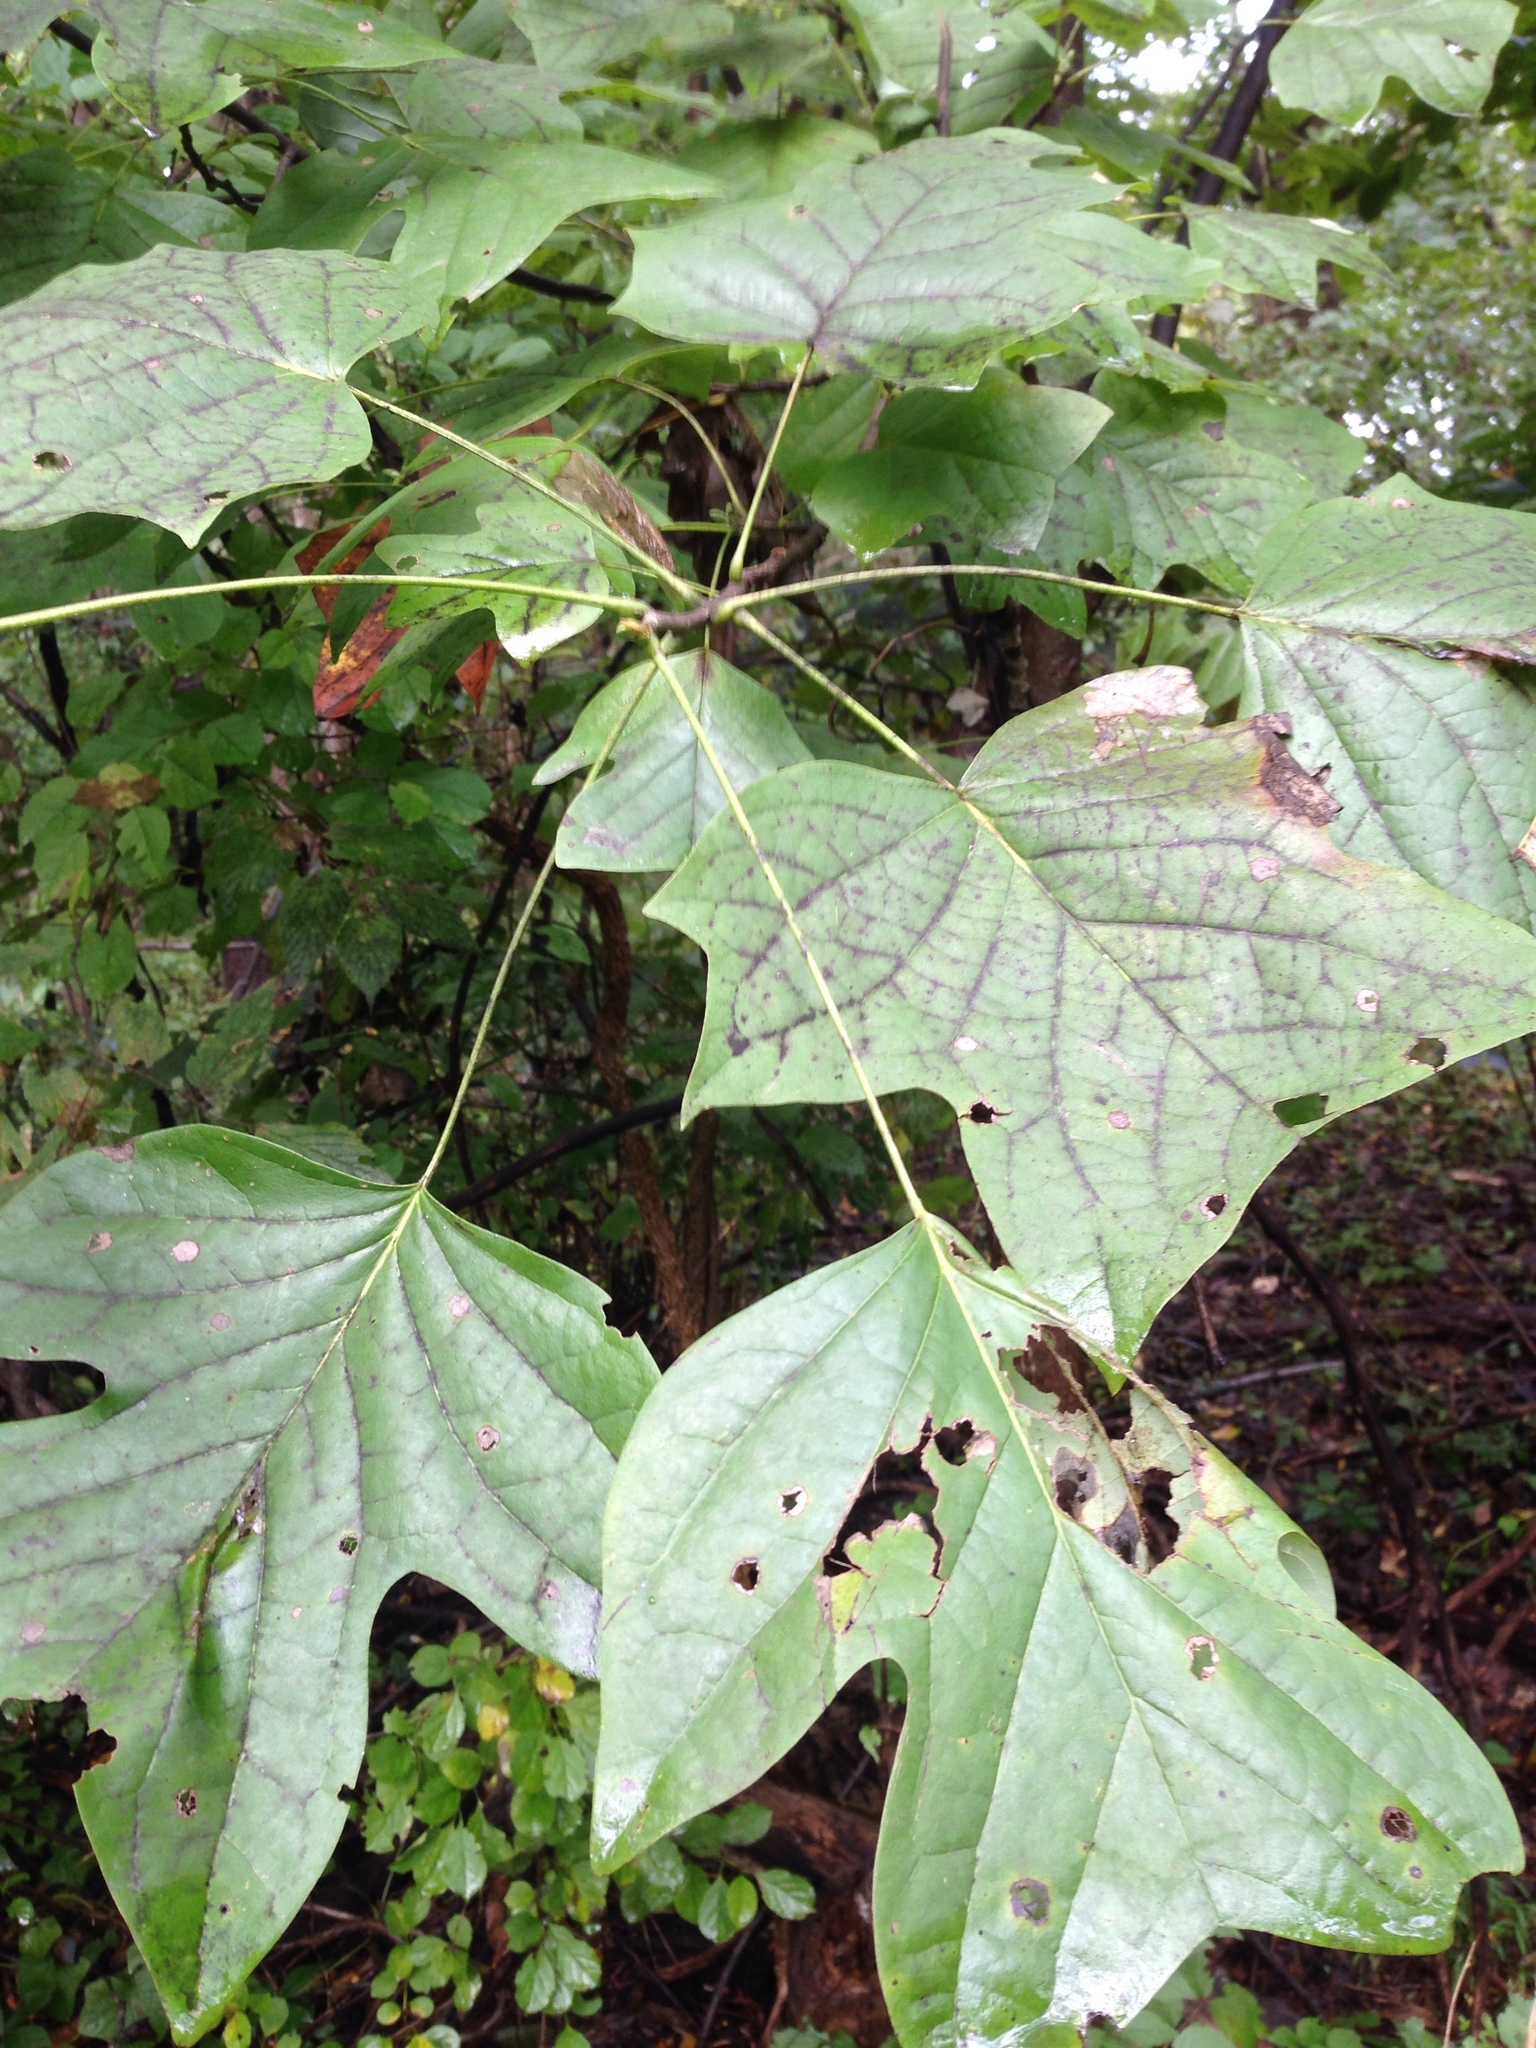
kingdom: Plantae
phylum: Tracheophyta
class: Magnoliopsida
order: Magnoliales
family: Magnoliaceae
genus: Liriodendron
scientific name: Liriodendron tulipifera
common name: Tulip tree
